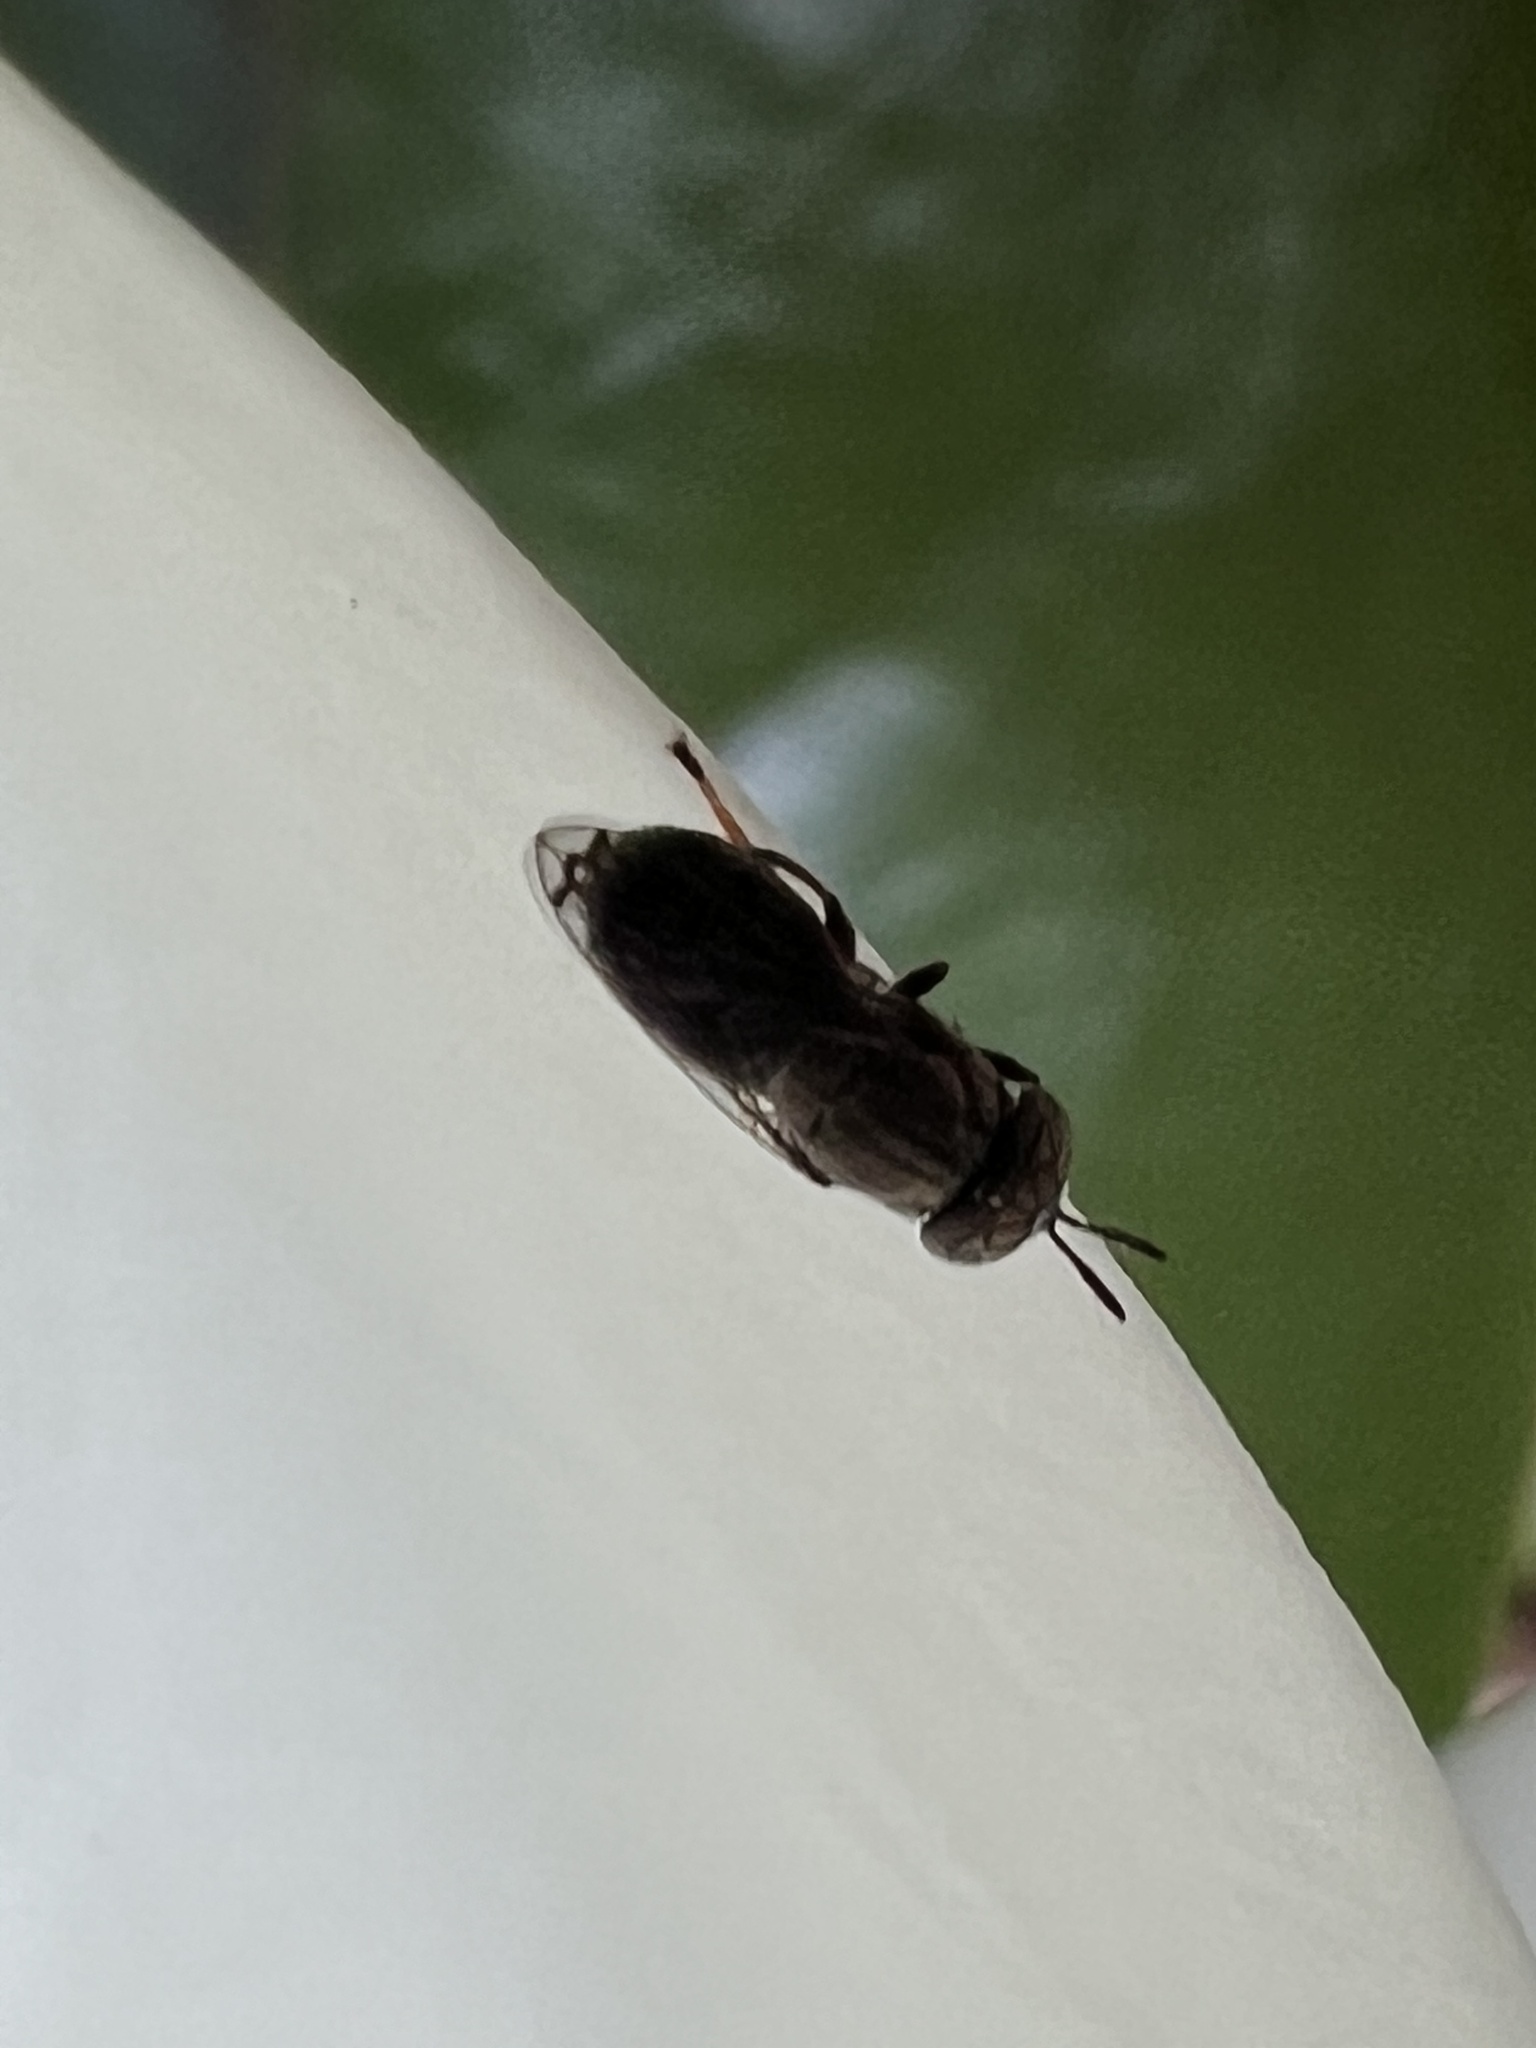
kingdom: Animalia
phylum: Arthropoda
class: Insecta
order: Diptera
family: Syrphidae
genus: Orthonevra
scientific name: Orthonevra nitida
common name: Wavy mucksucker
